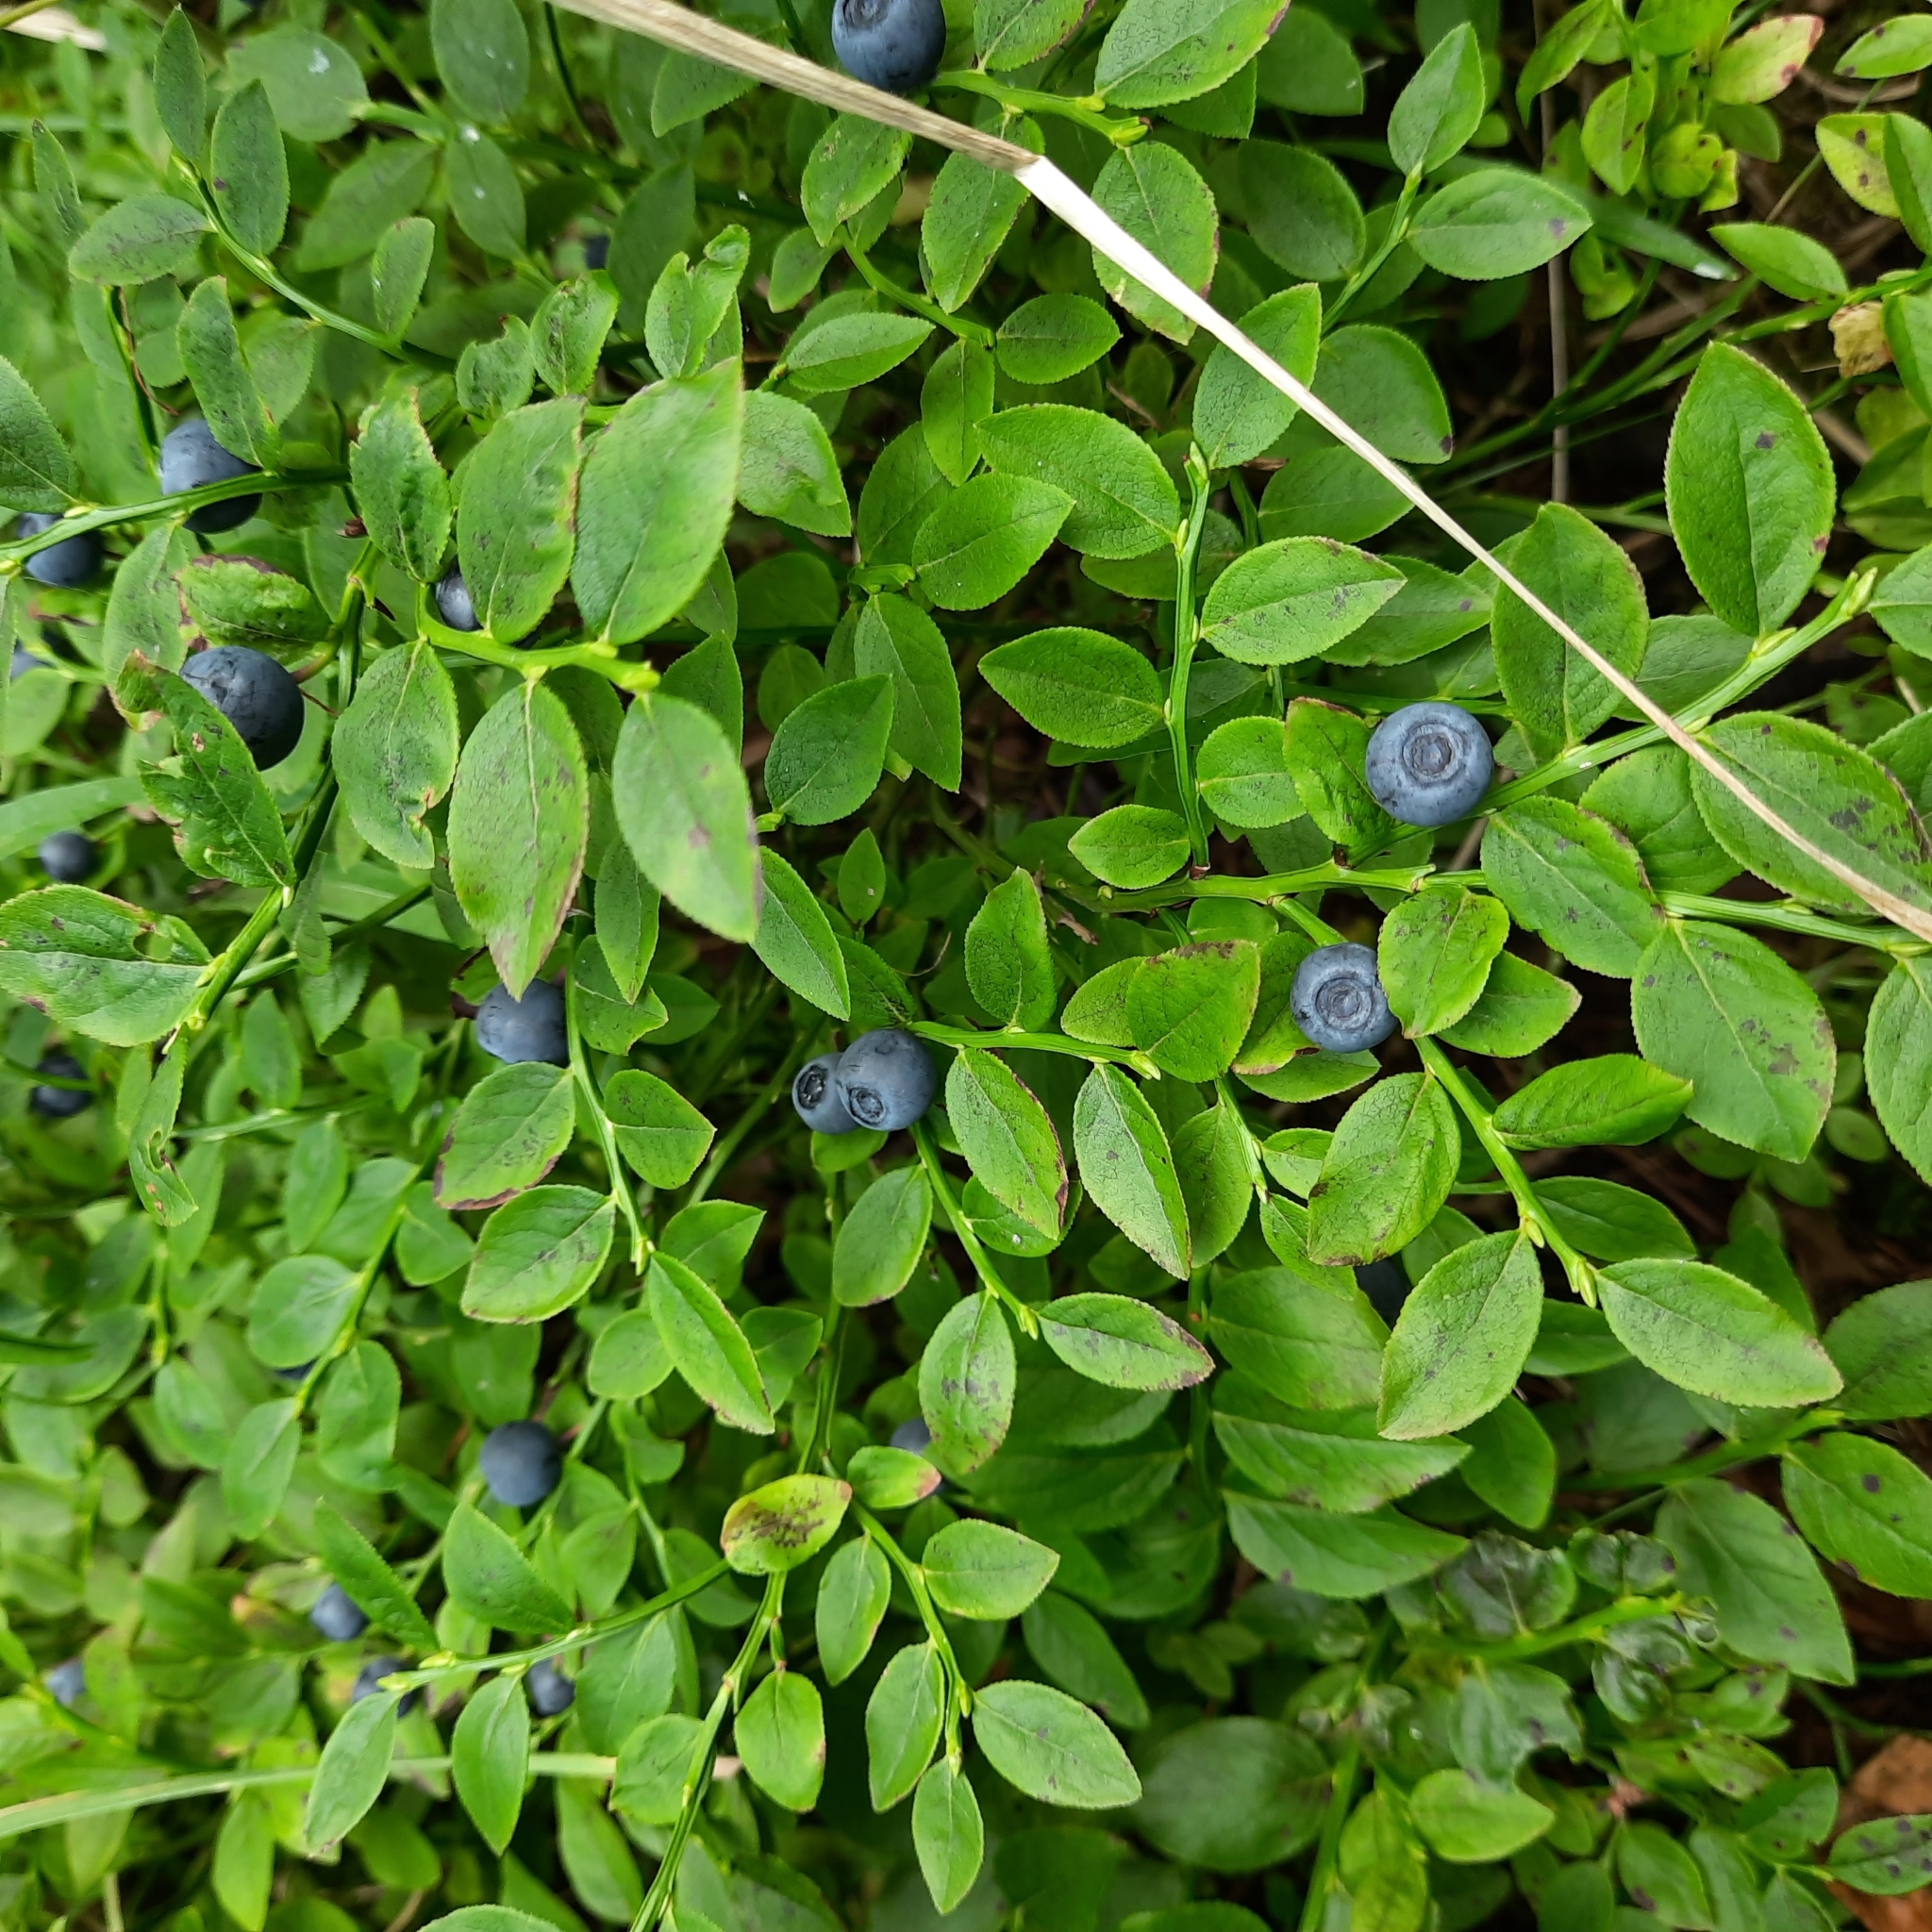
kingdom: Plantae
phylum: Tracheophyta
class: Magnoliopsida
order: Ericales
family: Ericaceae
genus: Vaccinium
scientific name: Vaccinium myrtillus
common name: Bilberry
